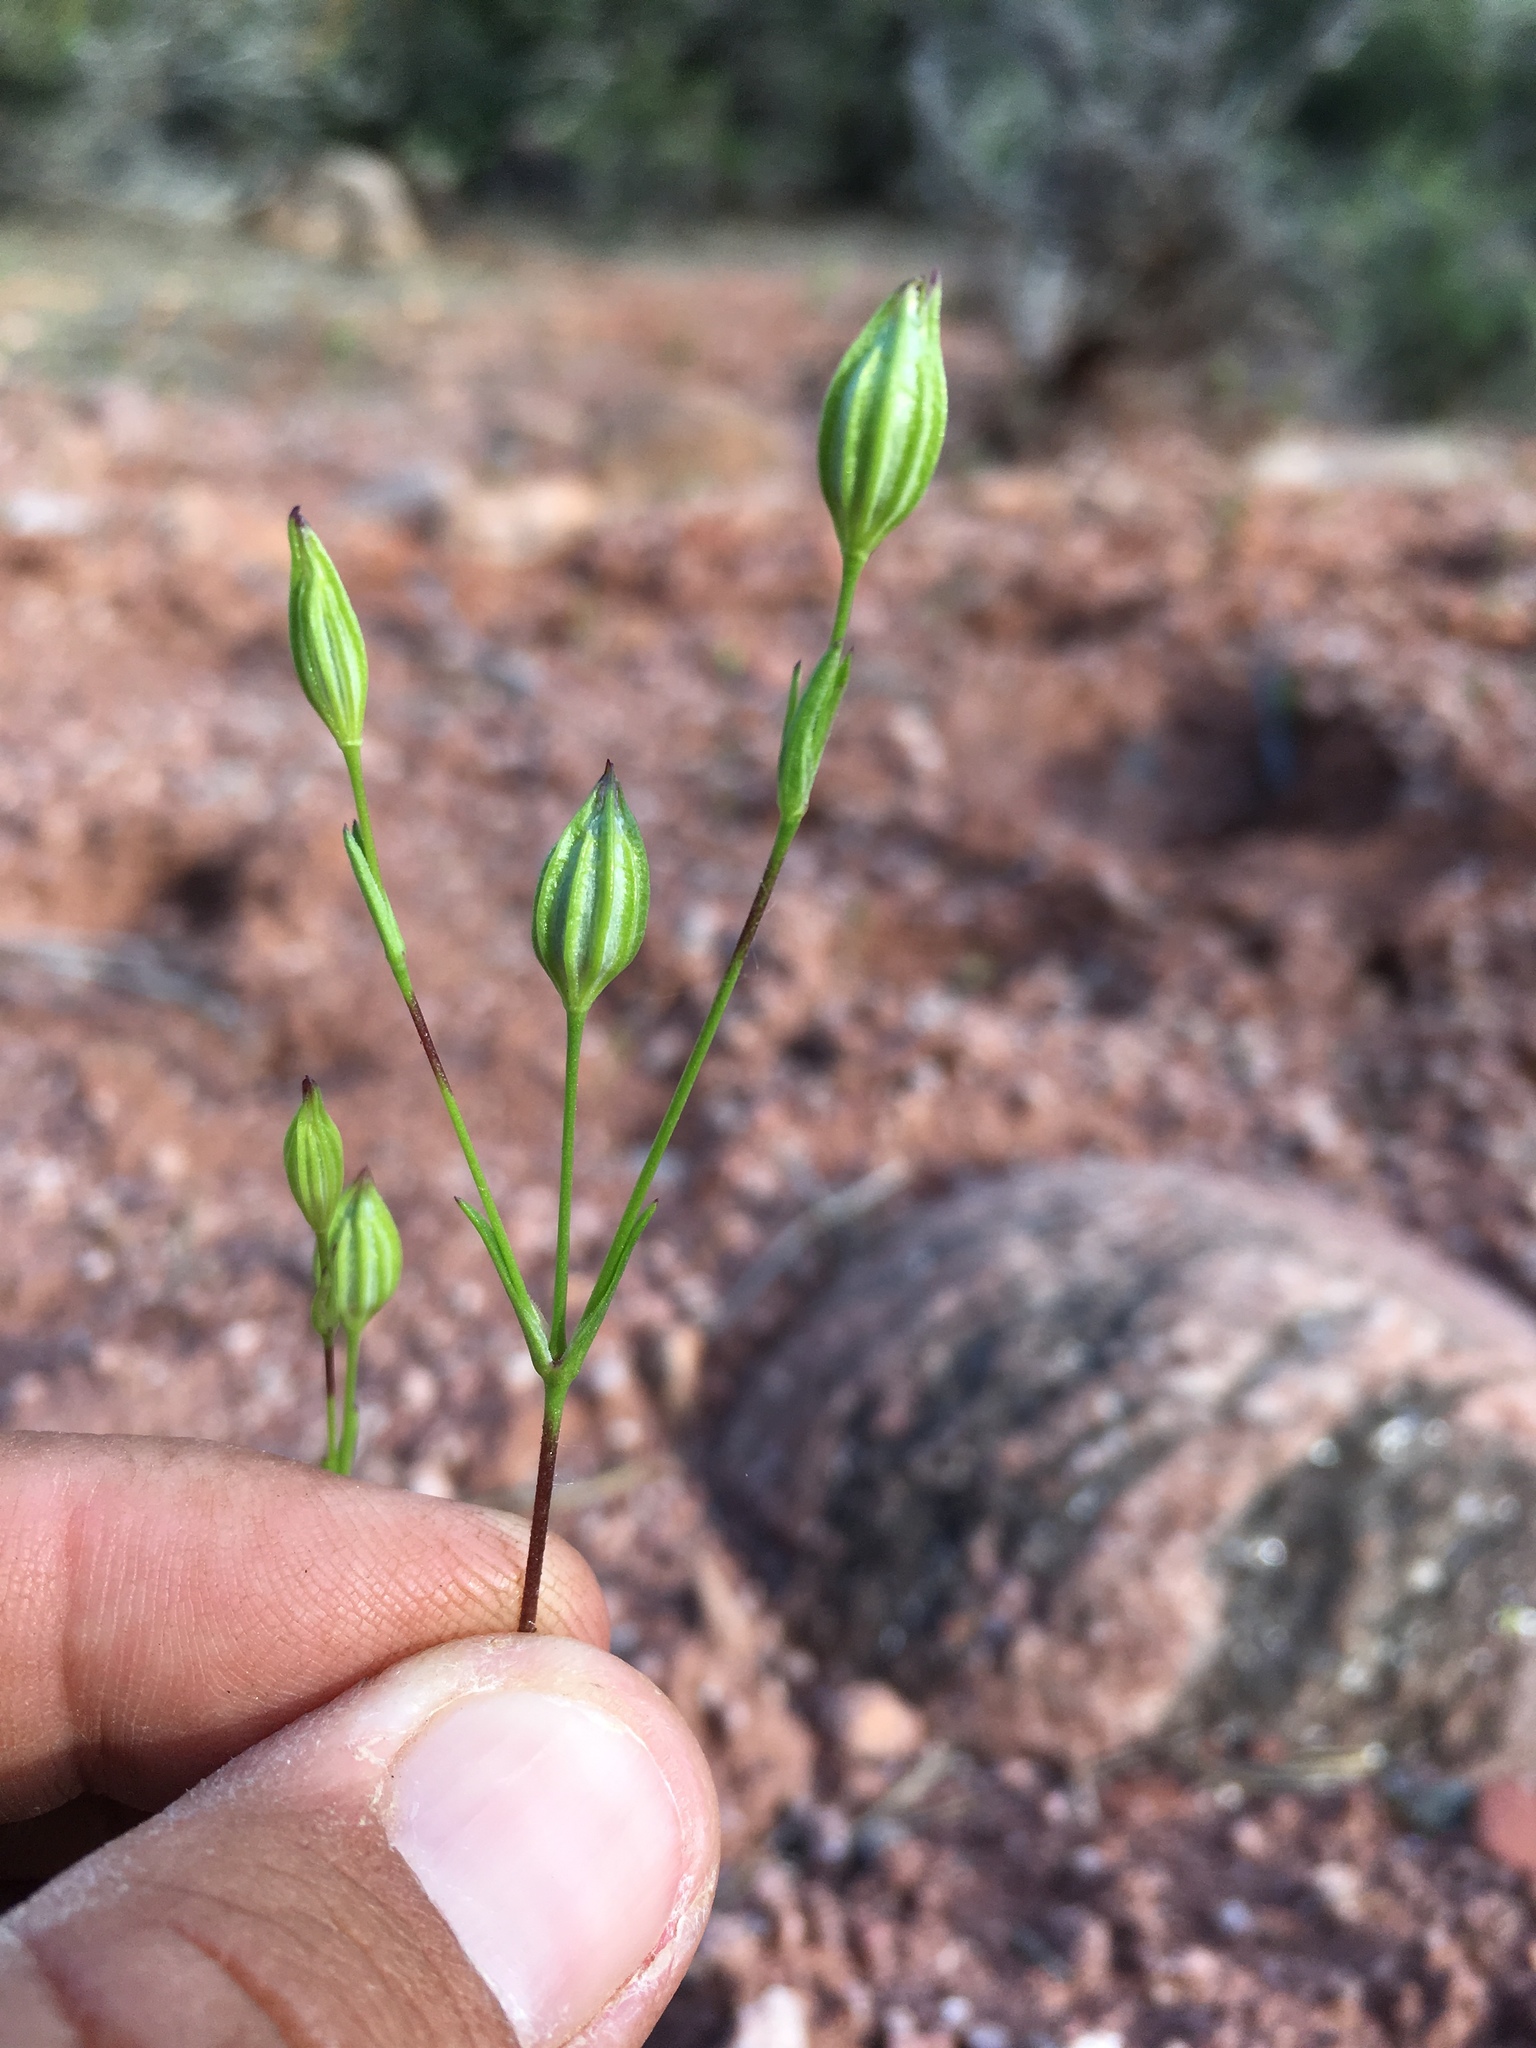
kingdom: Plantae
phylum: Tracheophyta
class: Magnoliopsida
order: Caryophyllales
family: Caryophyllaceae
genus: Silene
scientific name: Silene antirrhina
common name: Sleepy catchfly
